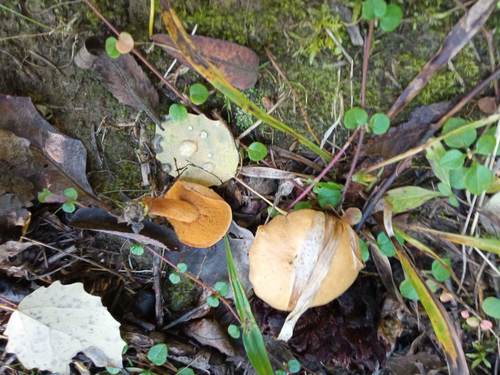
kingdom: Fungi
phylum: Basidiomycota
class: Agaricomycetes
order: Boletales
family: Boletaceae
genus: Chalciporus
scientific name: Chalciporus piperatus
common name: Peppery bolete
